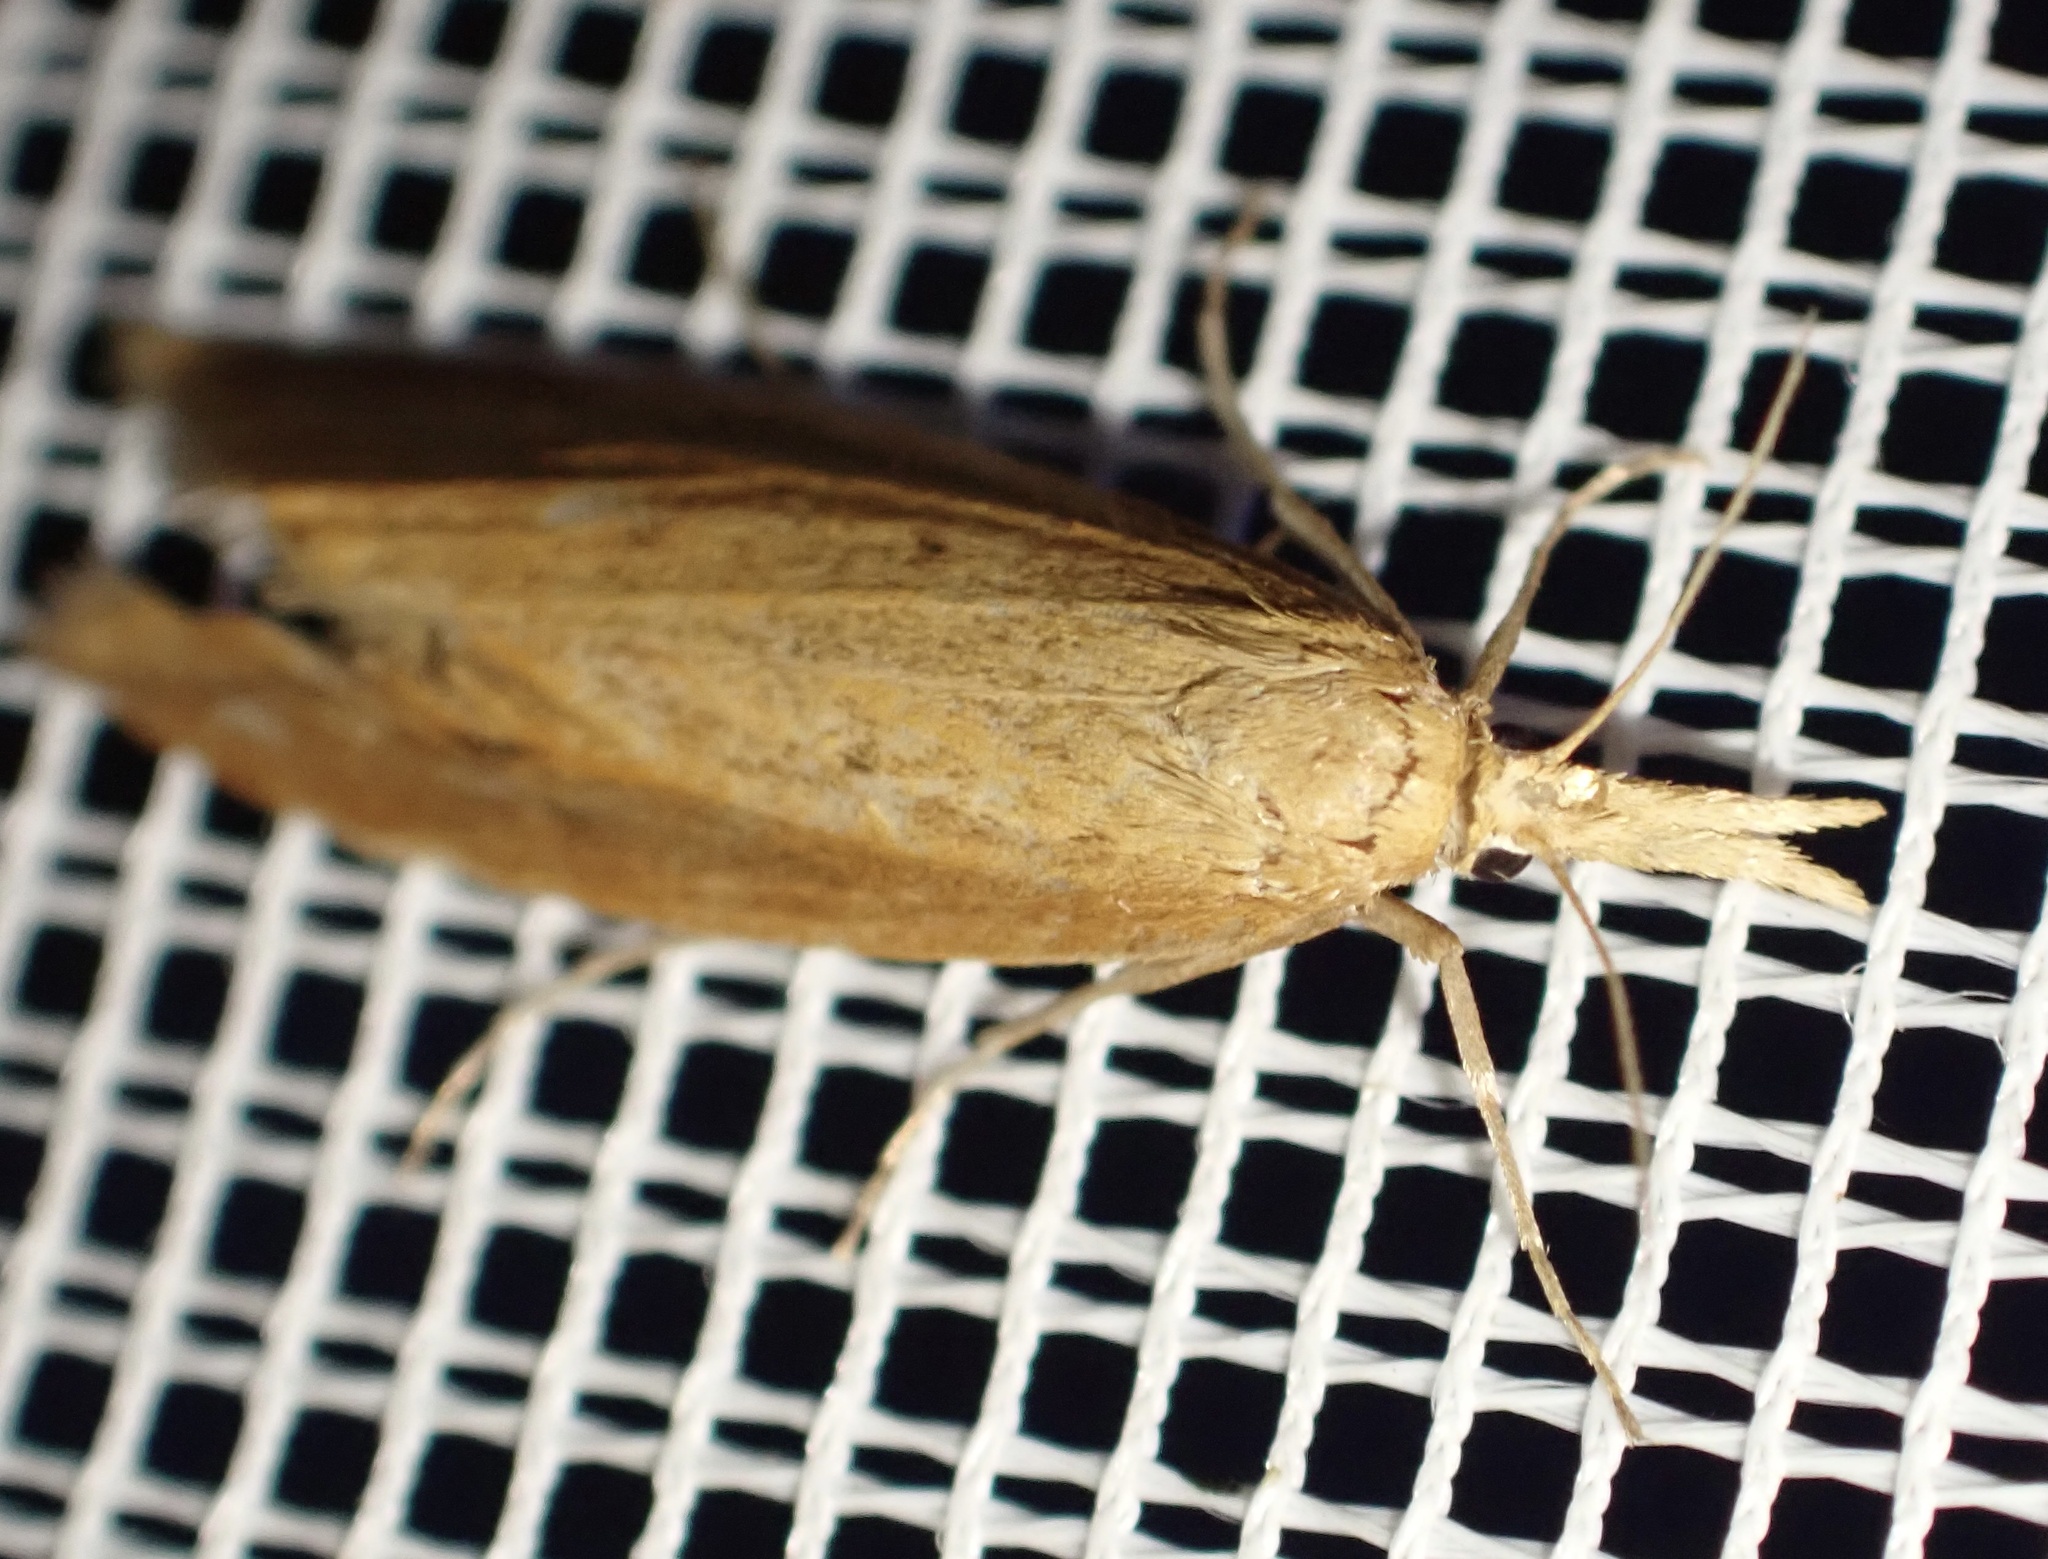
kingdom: Animalia
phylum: Arthropoda
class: Insecta
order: Lepidoptera
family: Crambidae
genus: Donacaula
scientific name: Donacaula forficella
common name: Pale water-veneer
